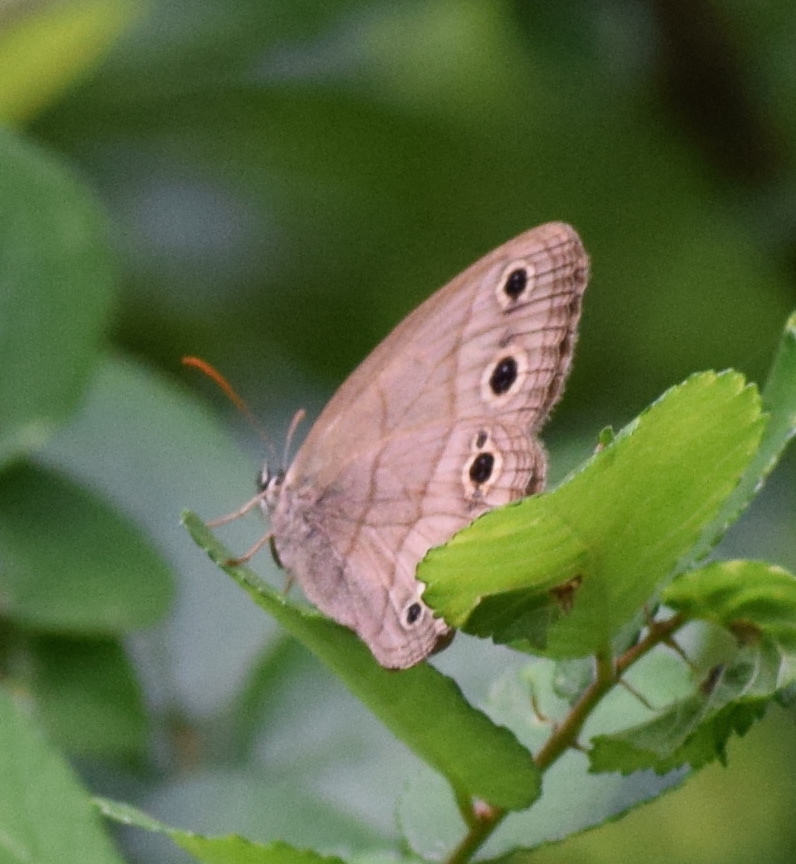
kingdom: Animalia
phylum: Arthropoda
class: Insecta
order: Lepidoptera
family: Nymphalidae
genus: Euptychia
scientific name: Euptychia cymela
